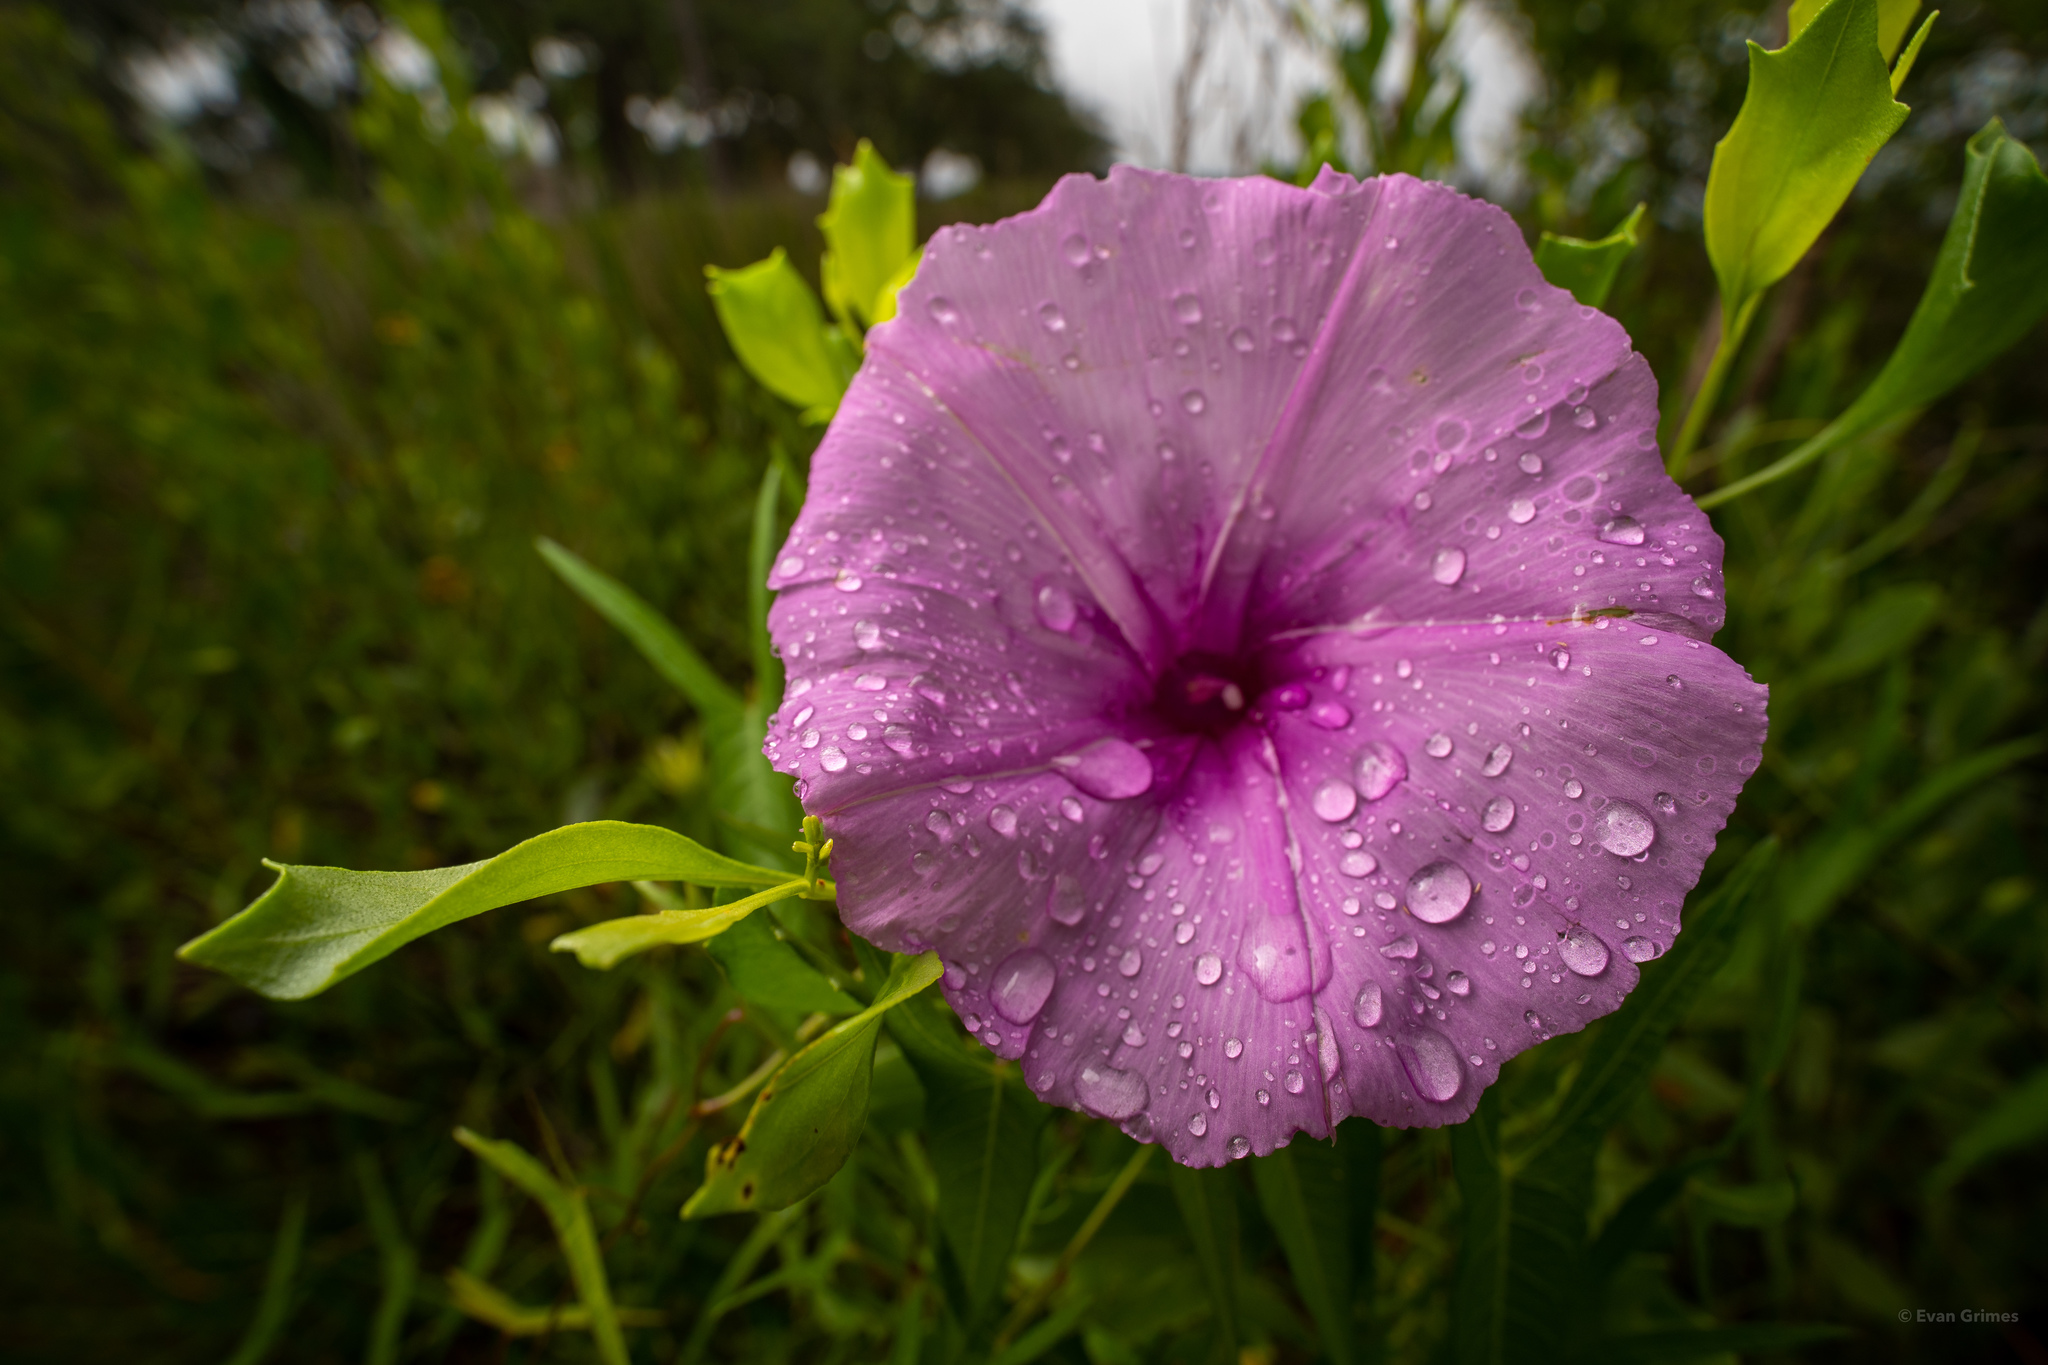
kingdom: Plantae
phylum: Tracheophyta
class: Magnoliopsida
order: Solanales
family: Convolvulaceae
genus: Ipomoea
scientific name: Ipomoea sagittata
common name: Saltmarsh morning glory
